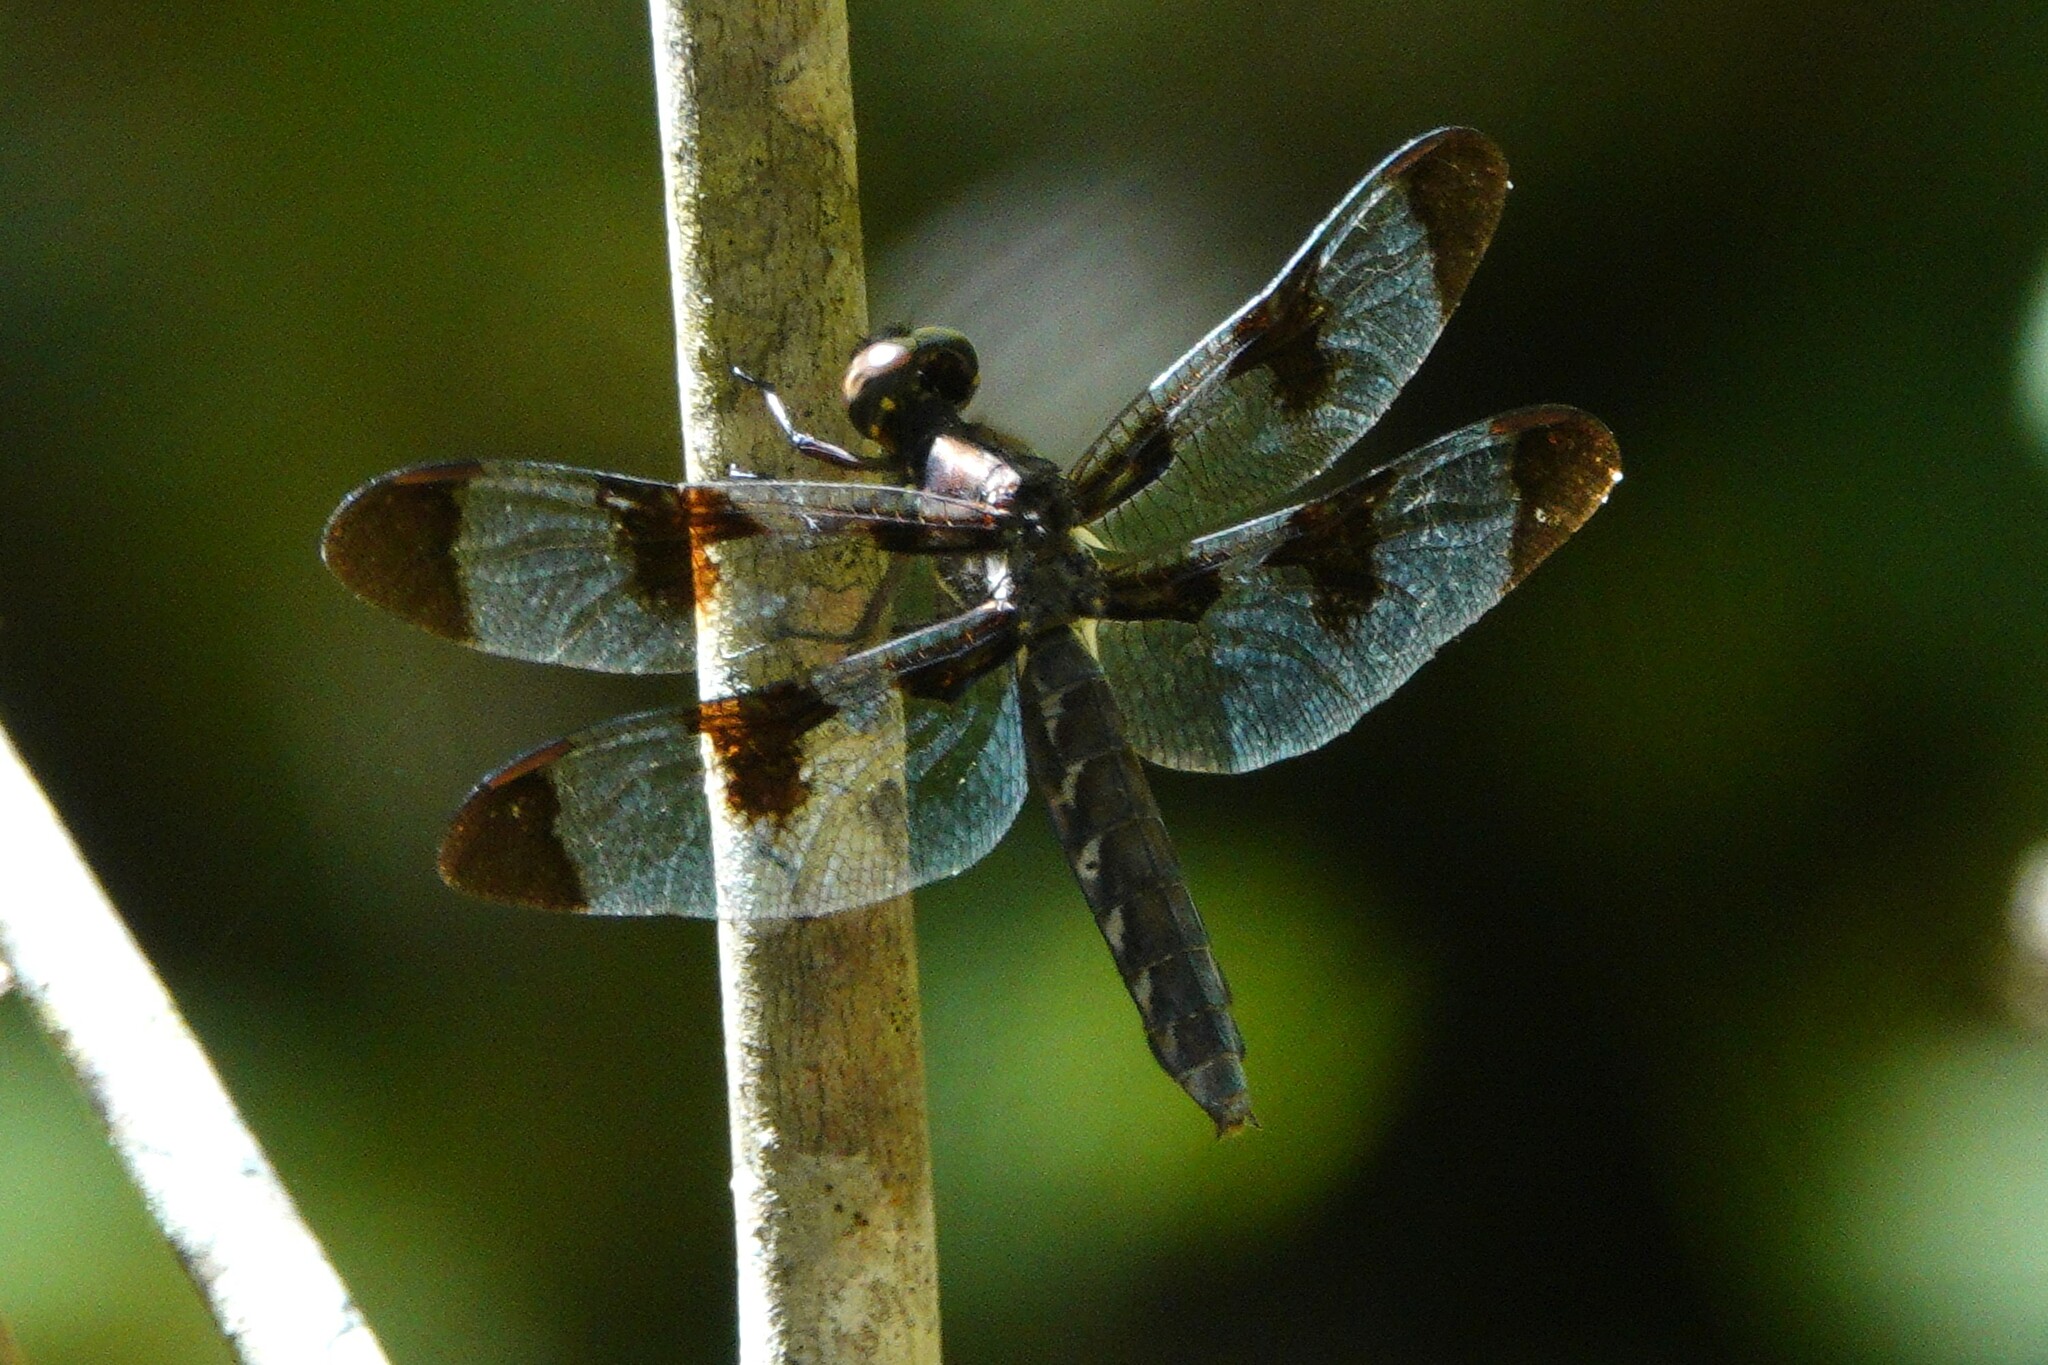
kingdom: Animalia
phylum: Arthropoda
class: Insecta
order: Odonata
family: Libellulidae
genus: Plathemis
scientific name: Plathemis lydia
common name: Common whitetail
